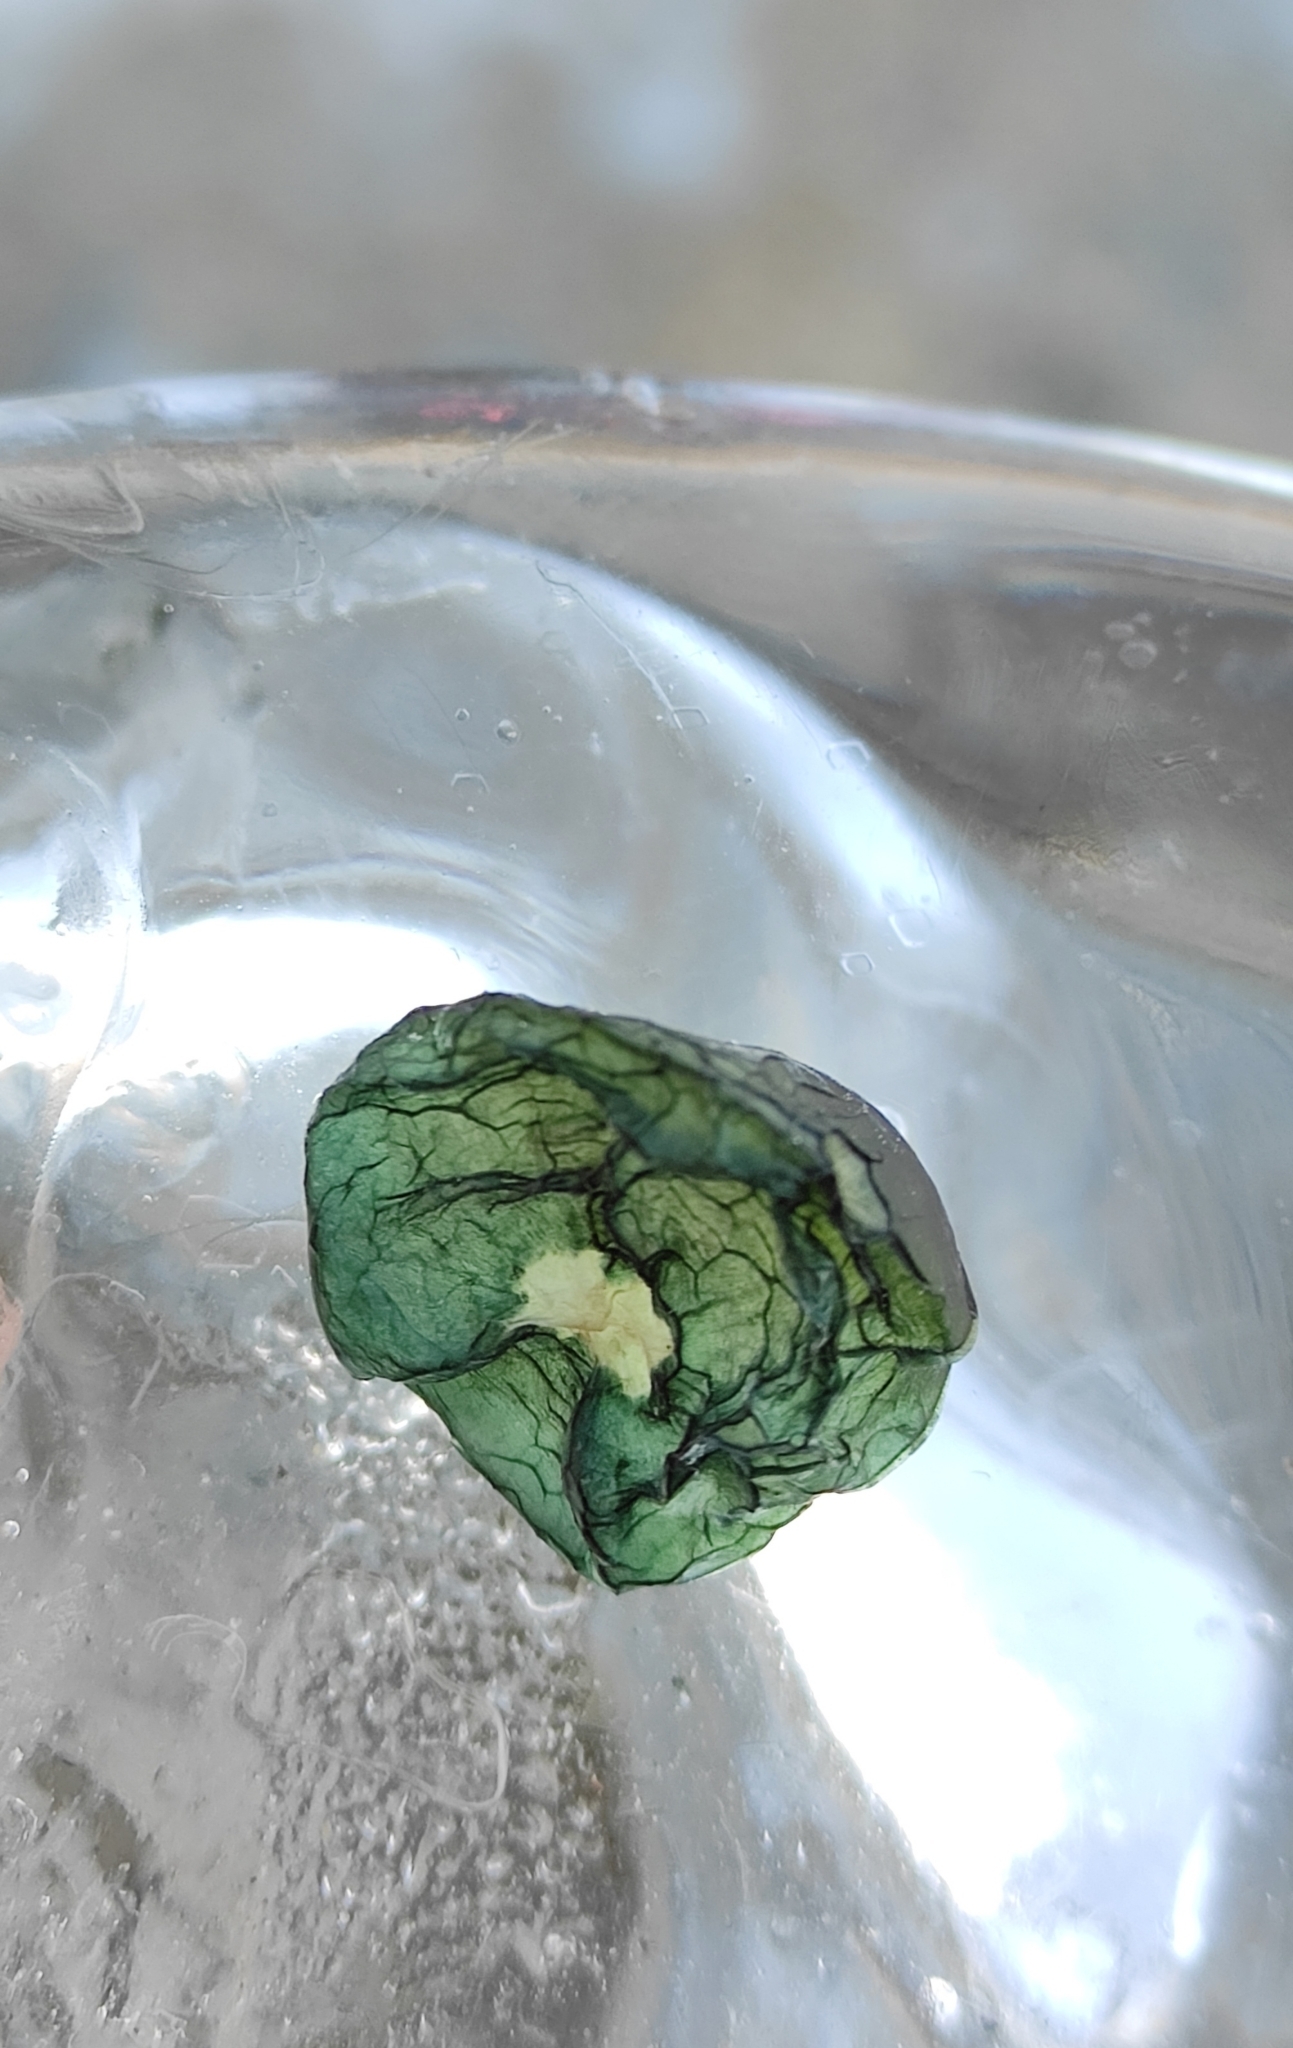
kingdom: Bacteria
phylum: Cyanobacteria
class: Cyanobacteriia
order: Cyanobacteriales
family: Nostocaceae
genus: Nostoc
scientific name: Nostoc pruniforme
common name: Mare's eggs
